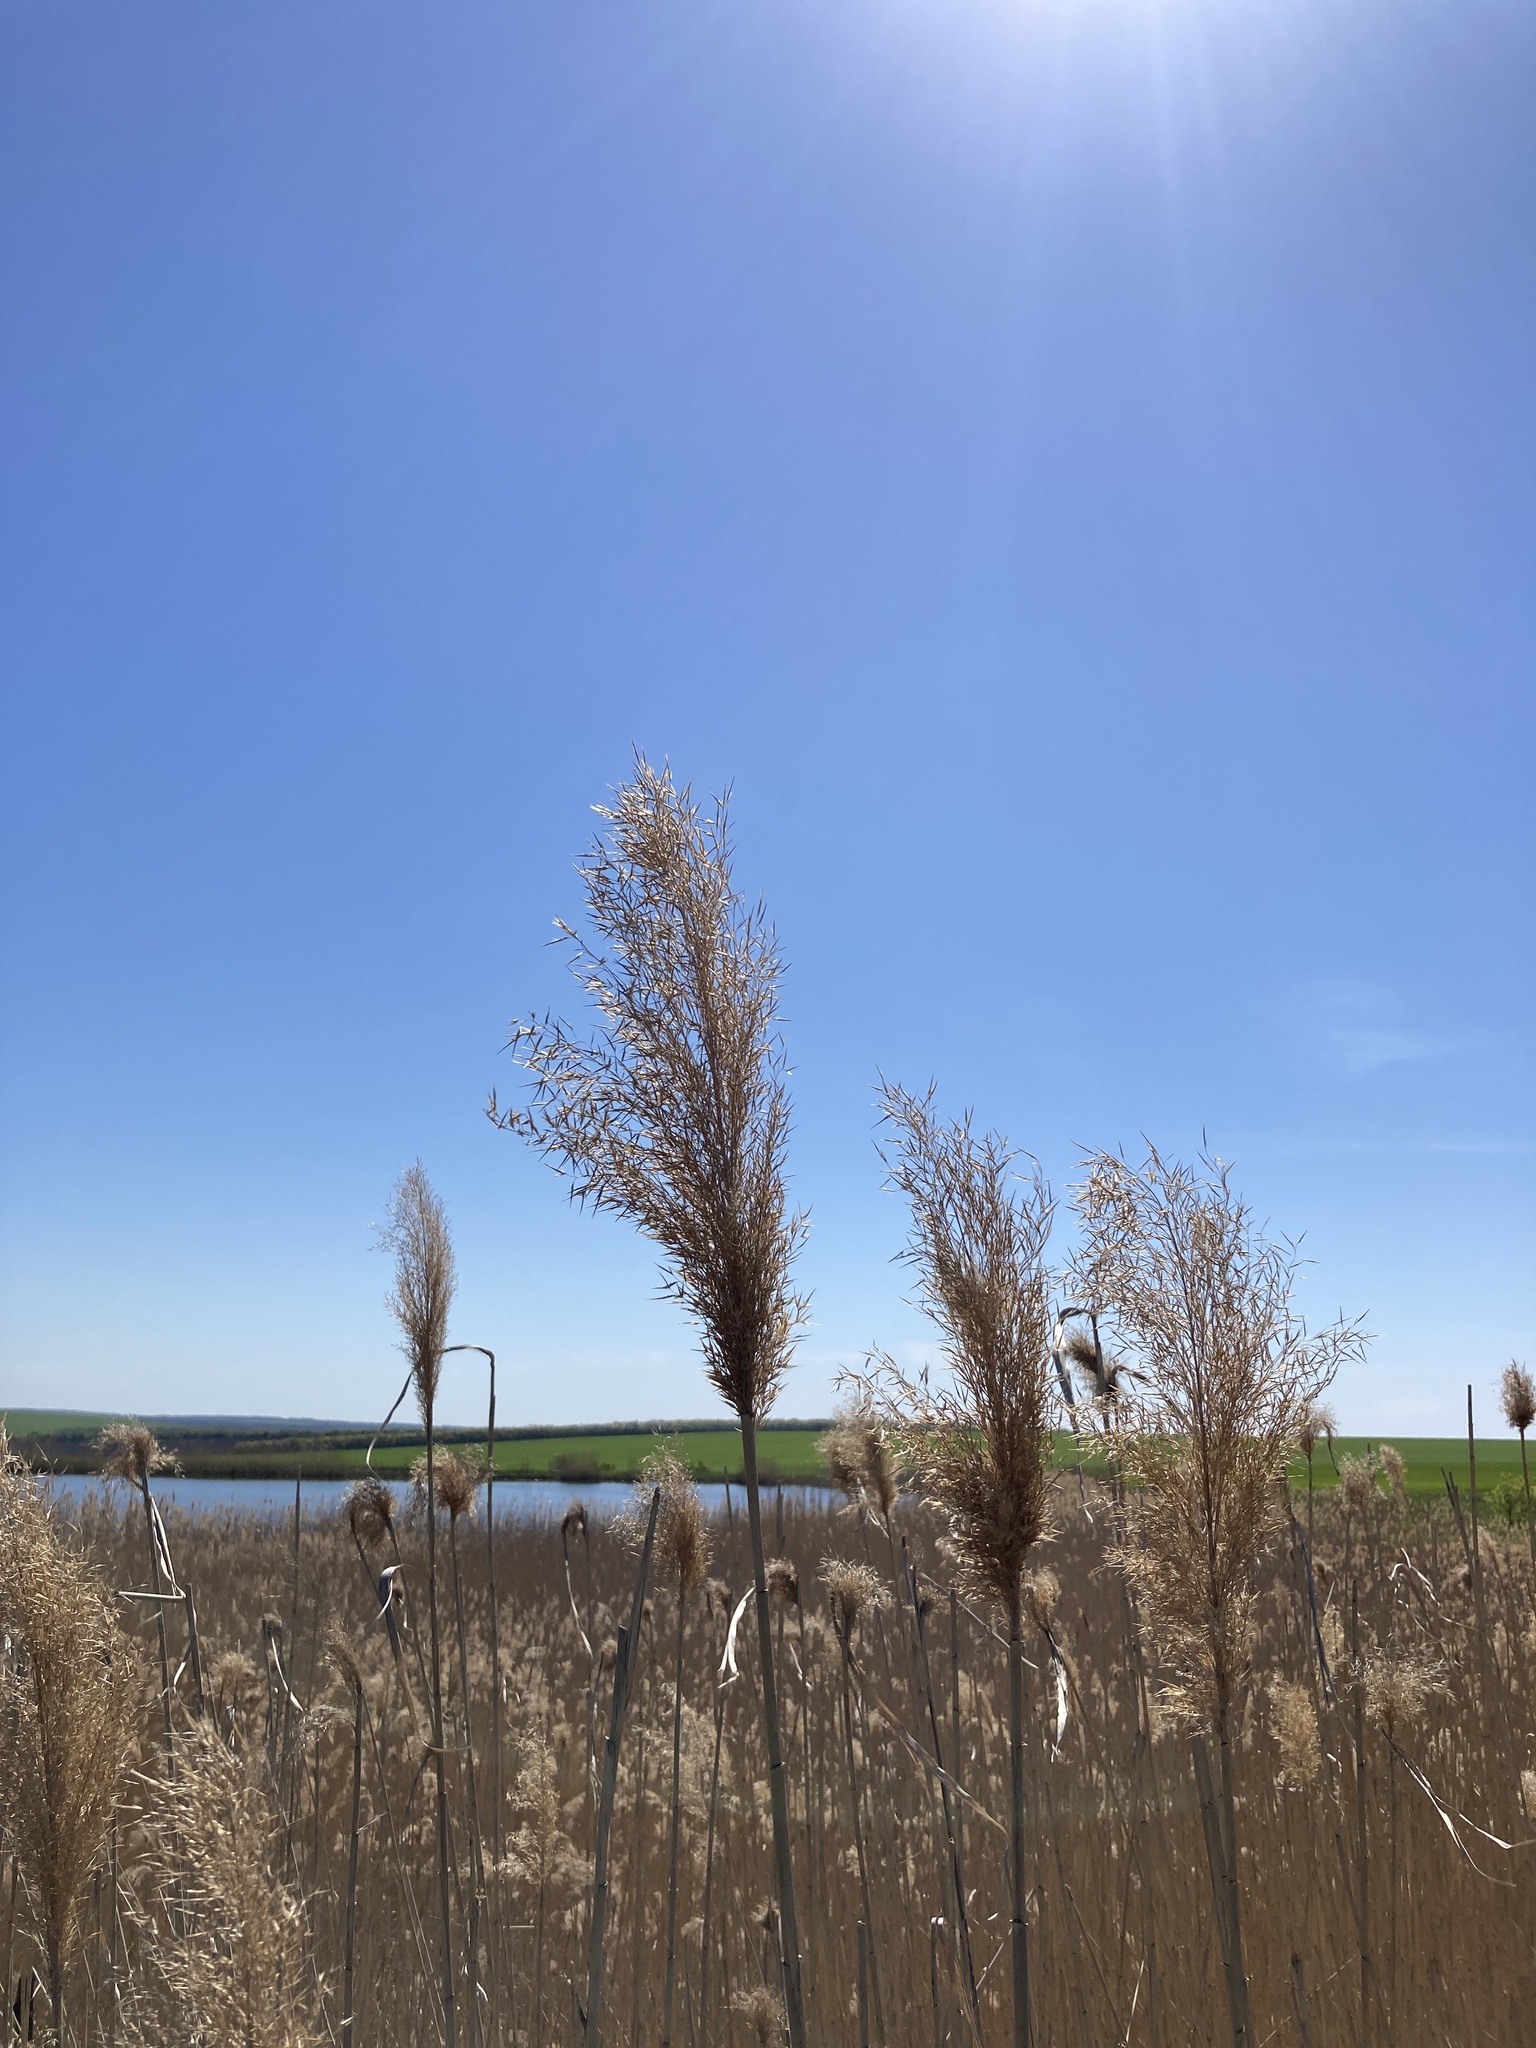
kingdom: Plantae
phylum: Tracheophyta
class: Liliopsida
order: Poales
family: Poaceae
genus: Phragmites
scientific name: Phragmites australis
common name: Common reed
